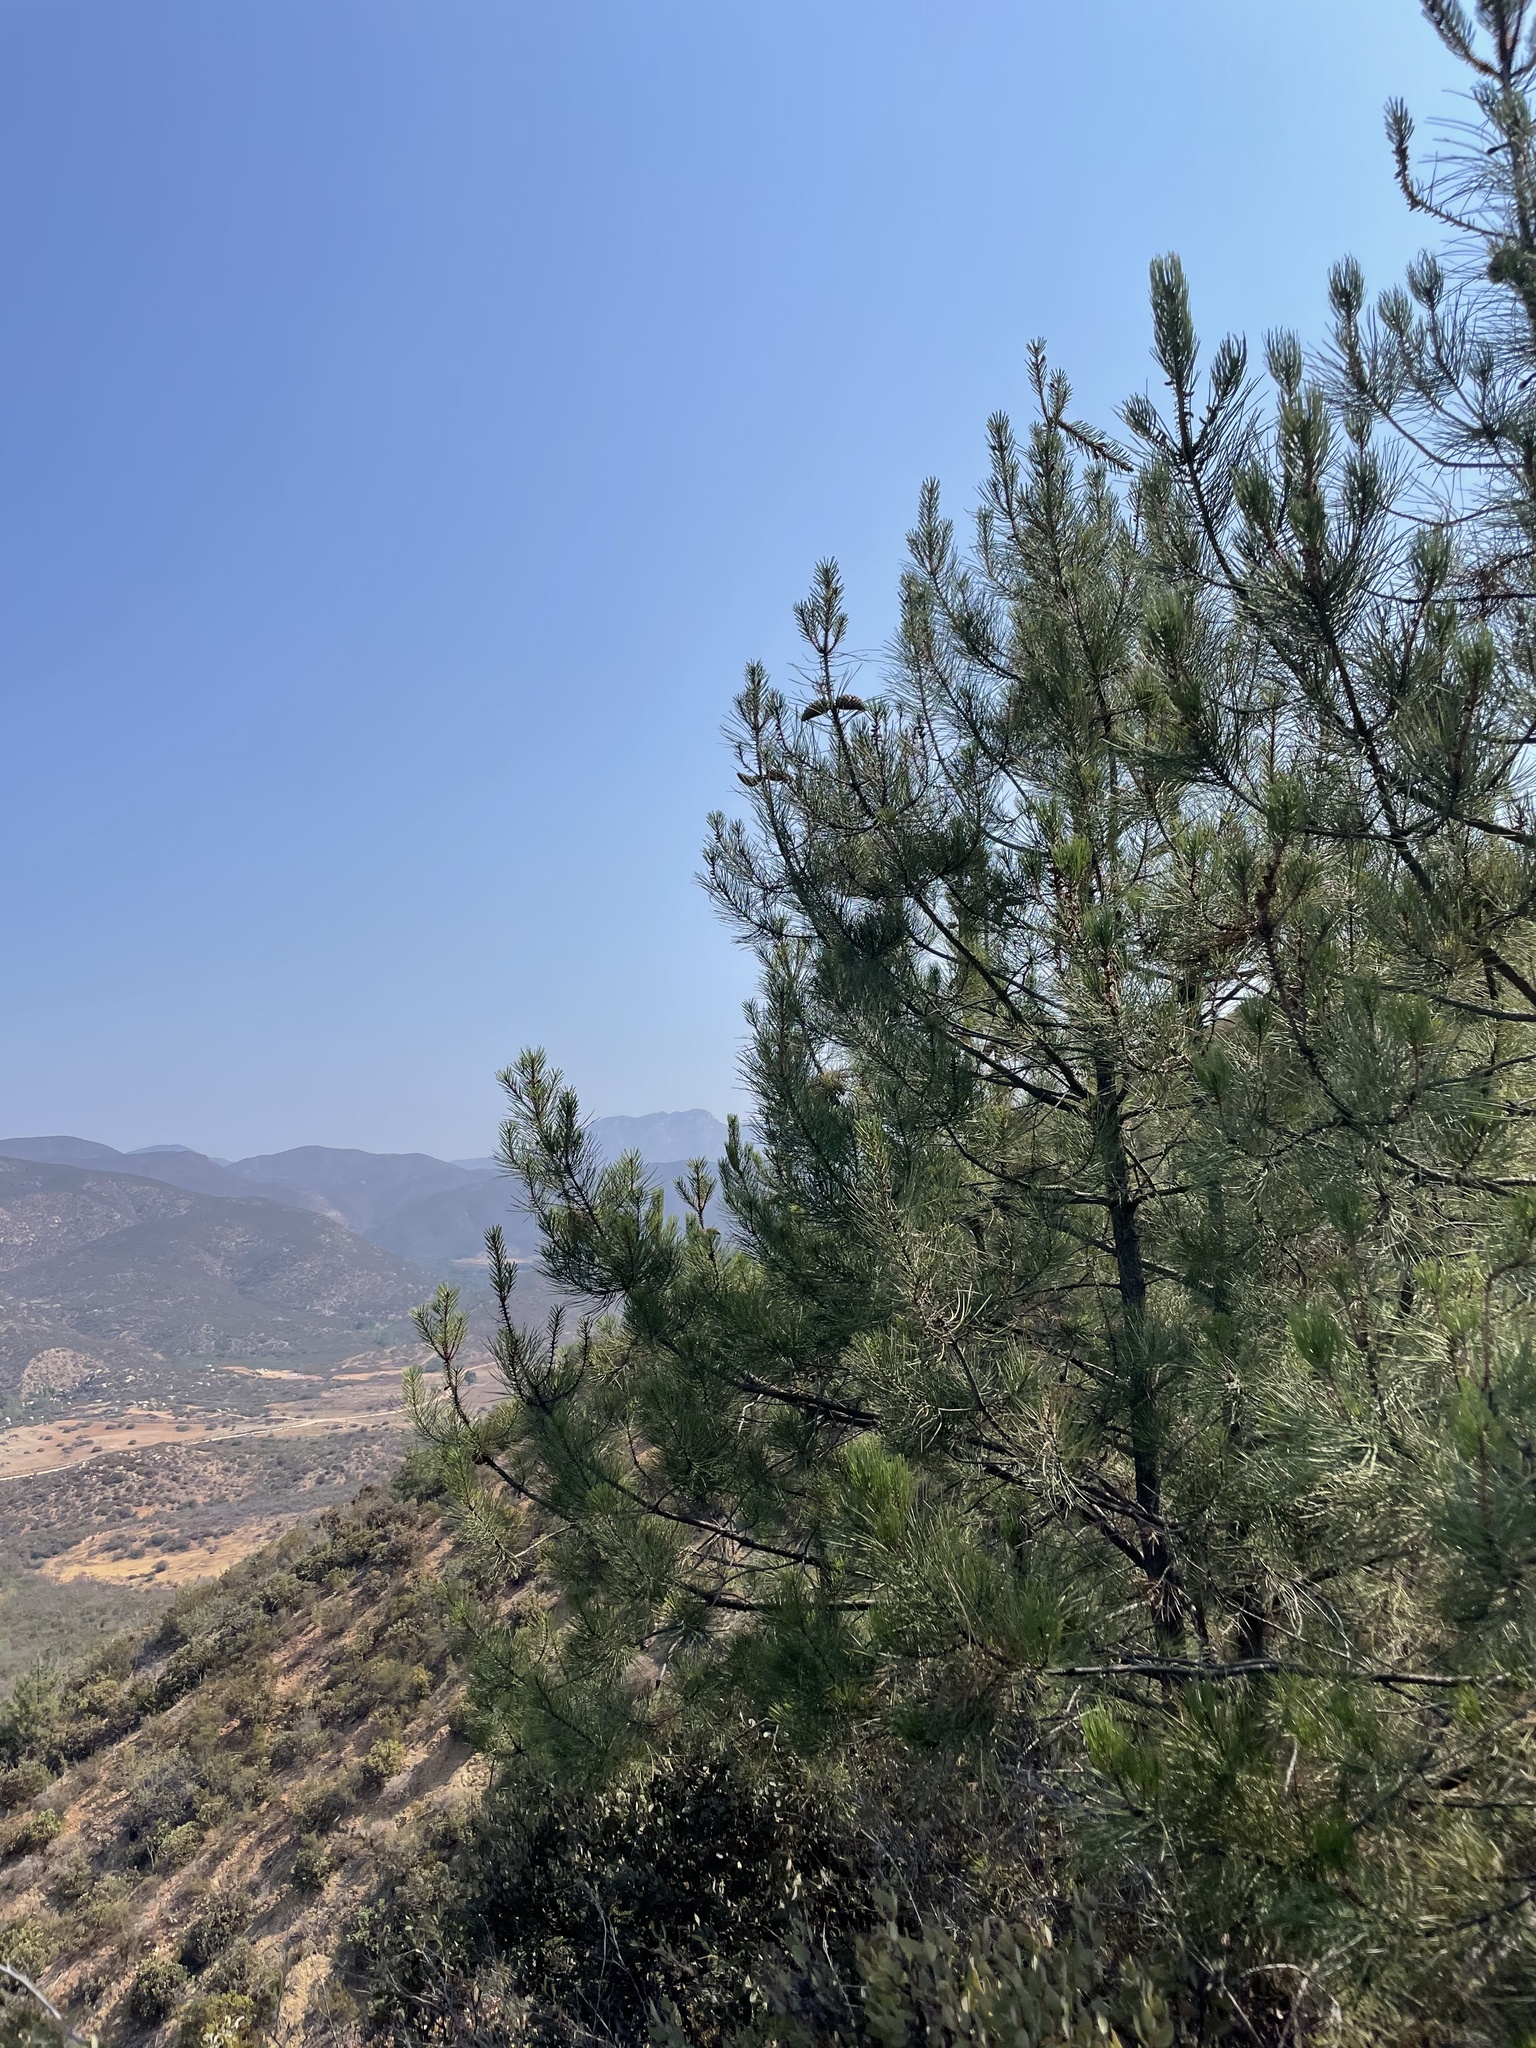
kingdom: Plantae
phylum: Tracheophyta
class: Pinopsida
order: Pinales
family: Pinaceae
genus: Pinus
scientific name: Pinus attenuata
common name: Knobcone pine
